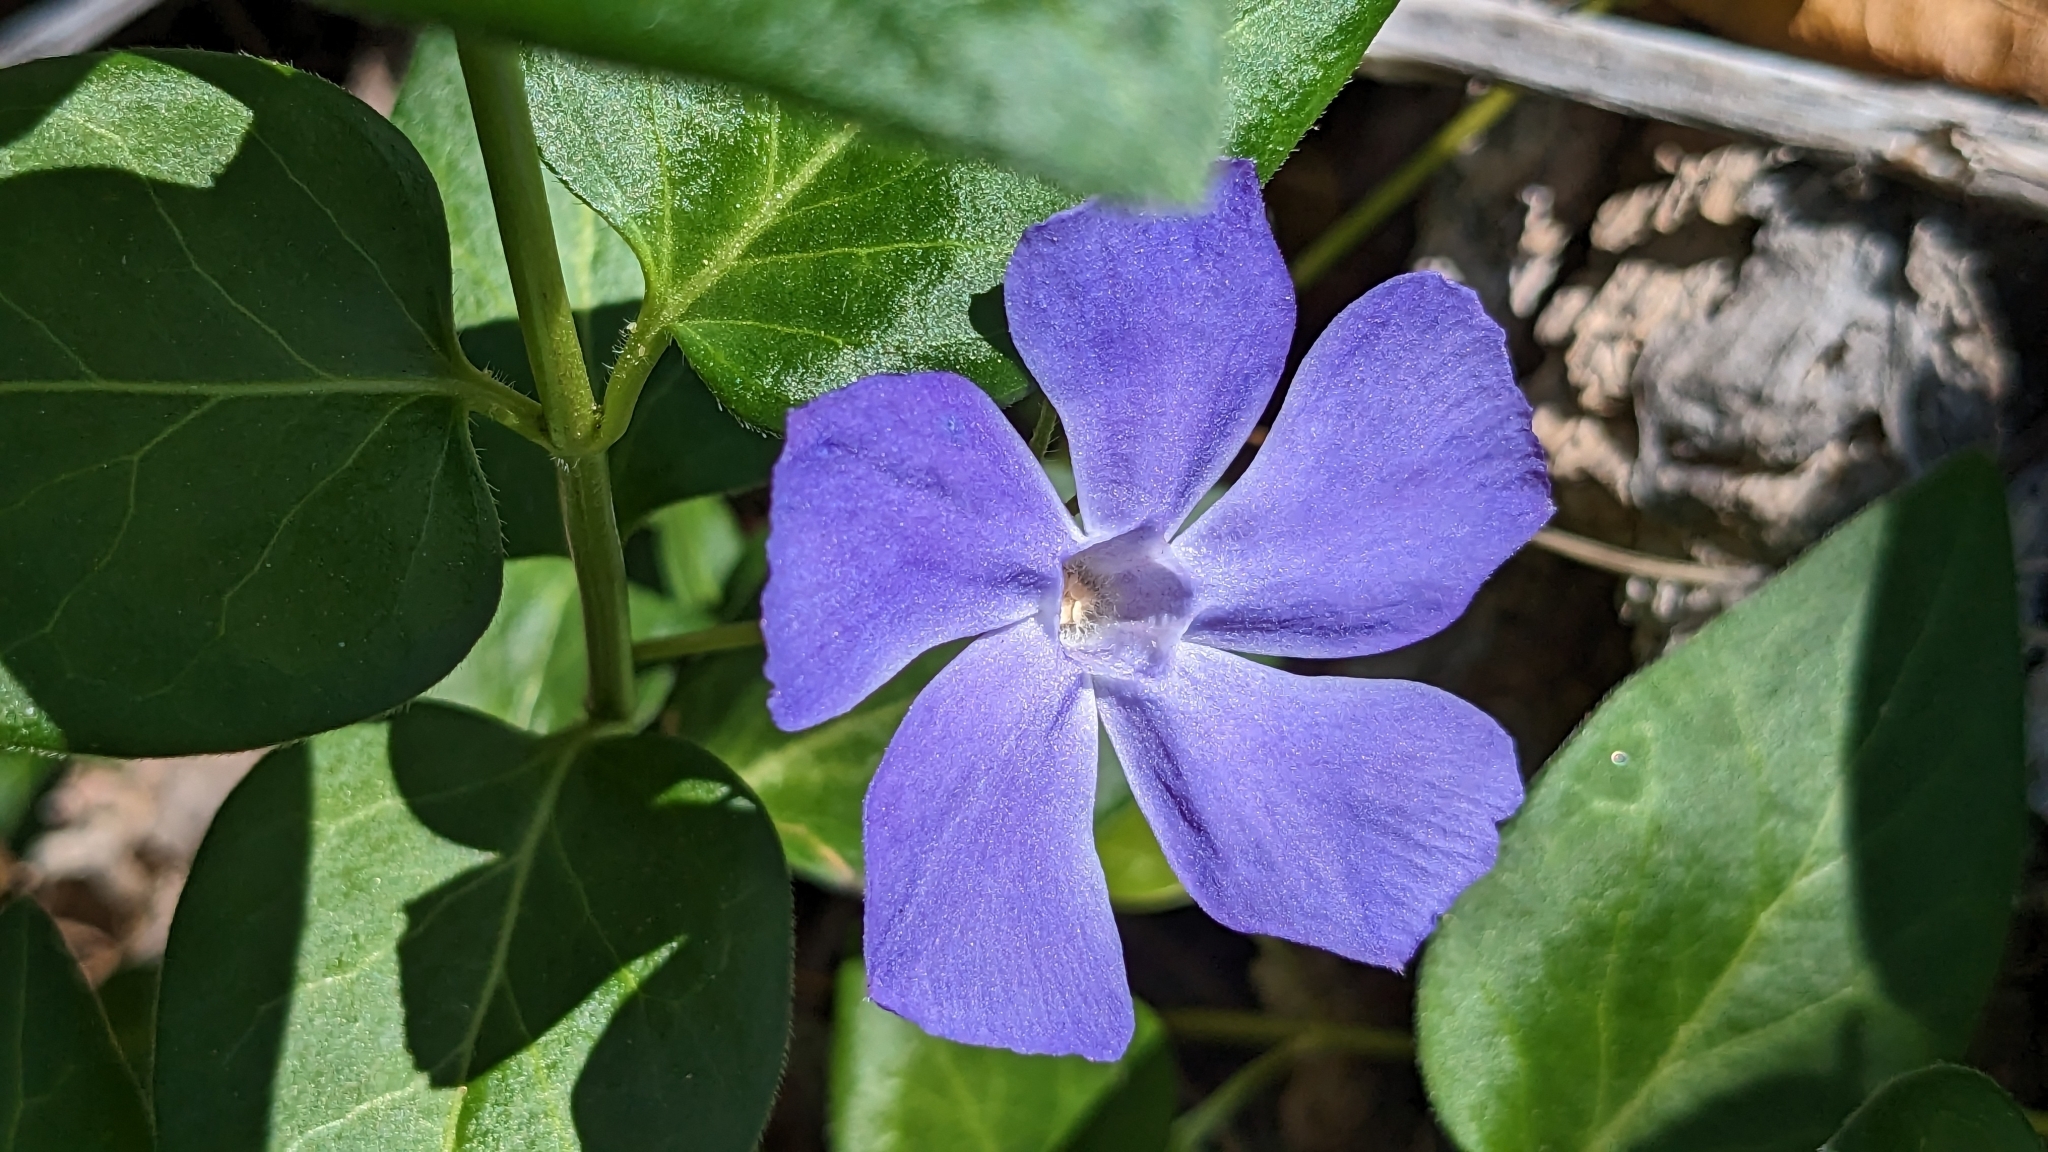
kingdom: Plantae
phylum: Tracheophyta
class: Magnoliopsida
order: Gentianales
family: Apocynaceae
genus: Vinca
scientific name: Vinca major
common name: Greater periwinkle
